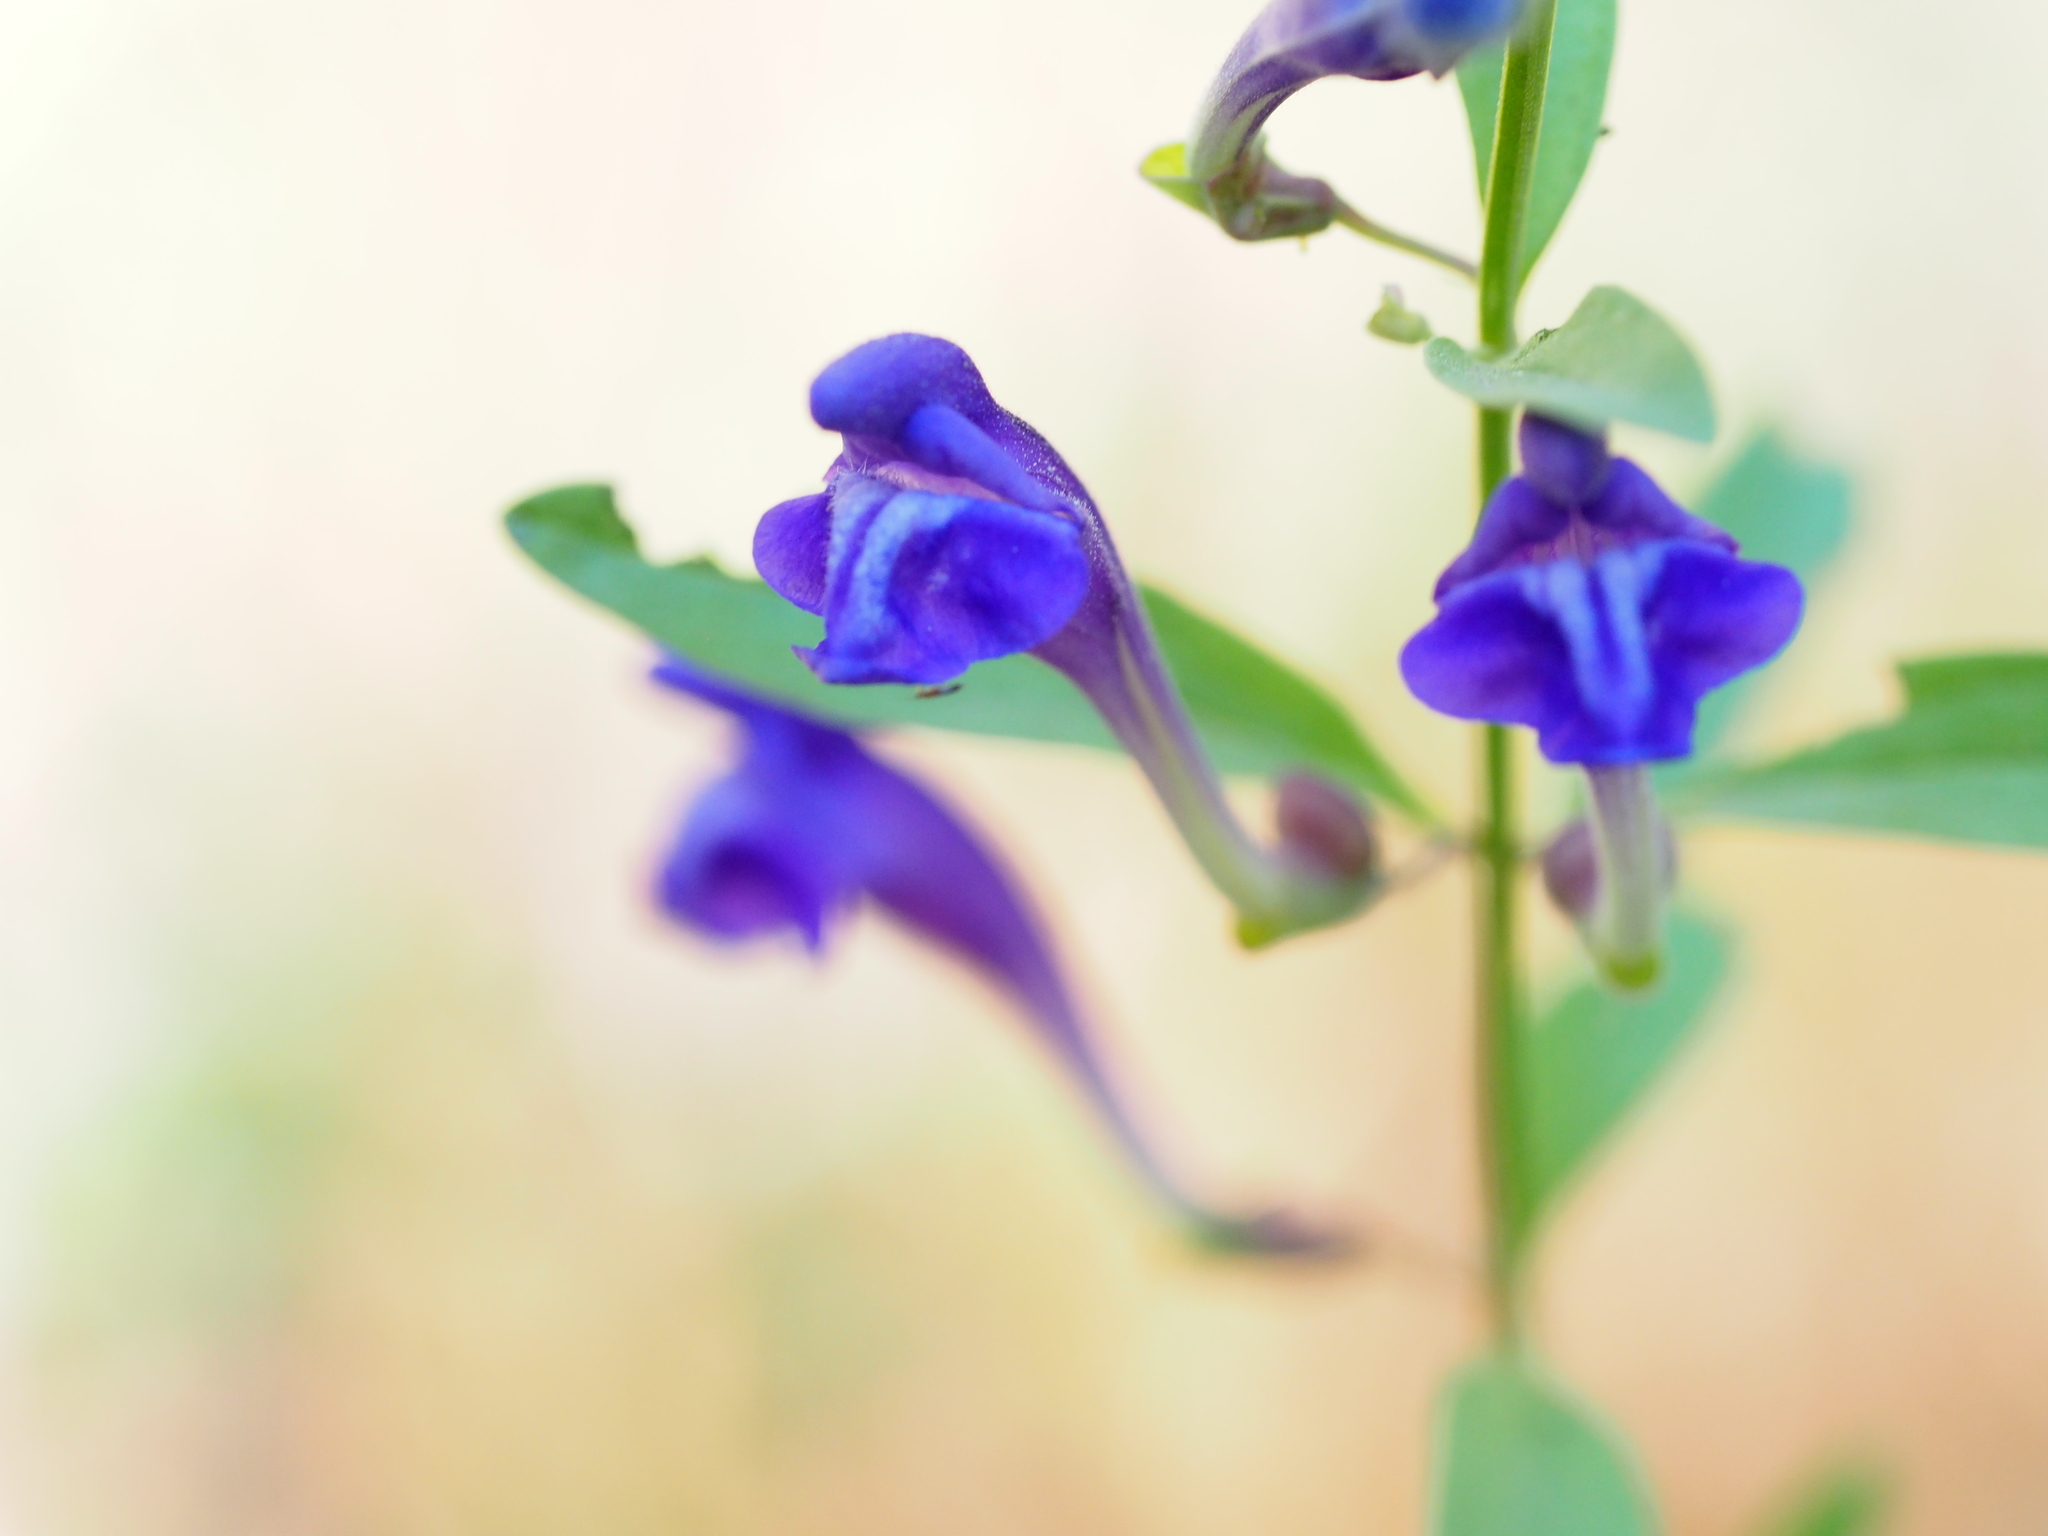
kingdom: Plantae
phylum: Tracheophyta
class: Magnoliopsida
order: Lamiales
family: Lamiaceae
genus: Scutellaria
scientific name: Scutellaria siphocampyloides
